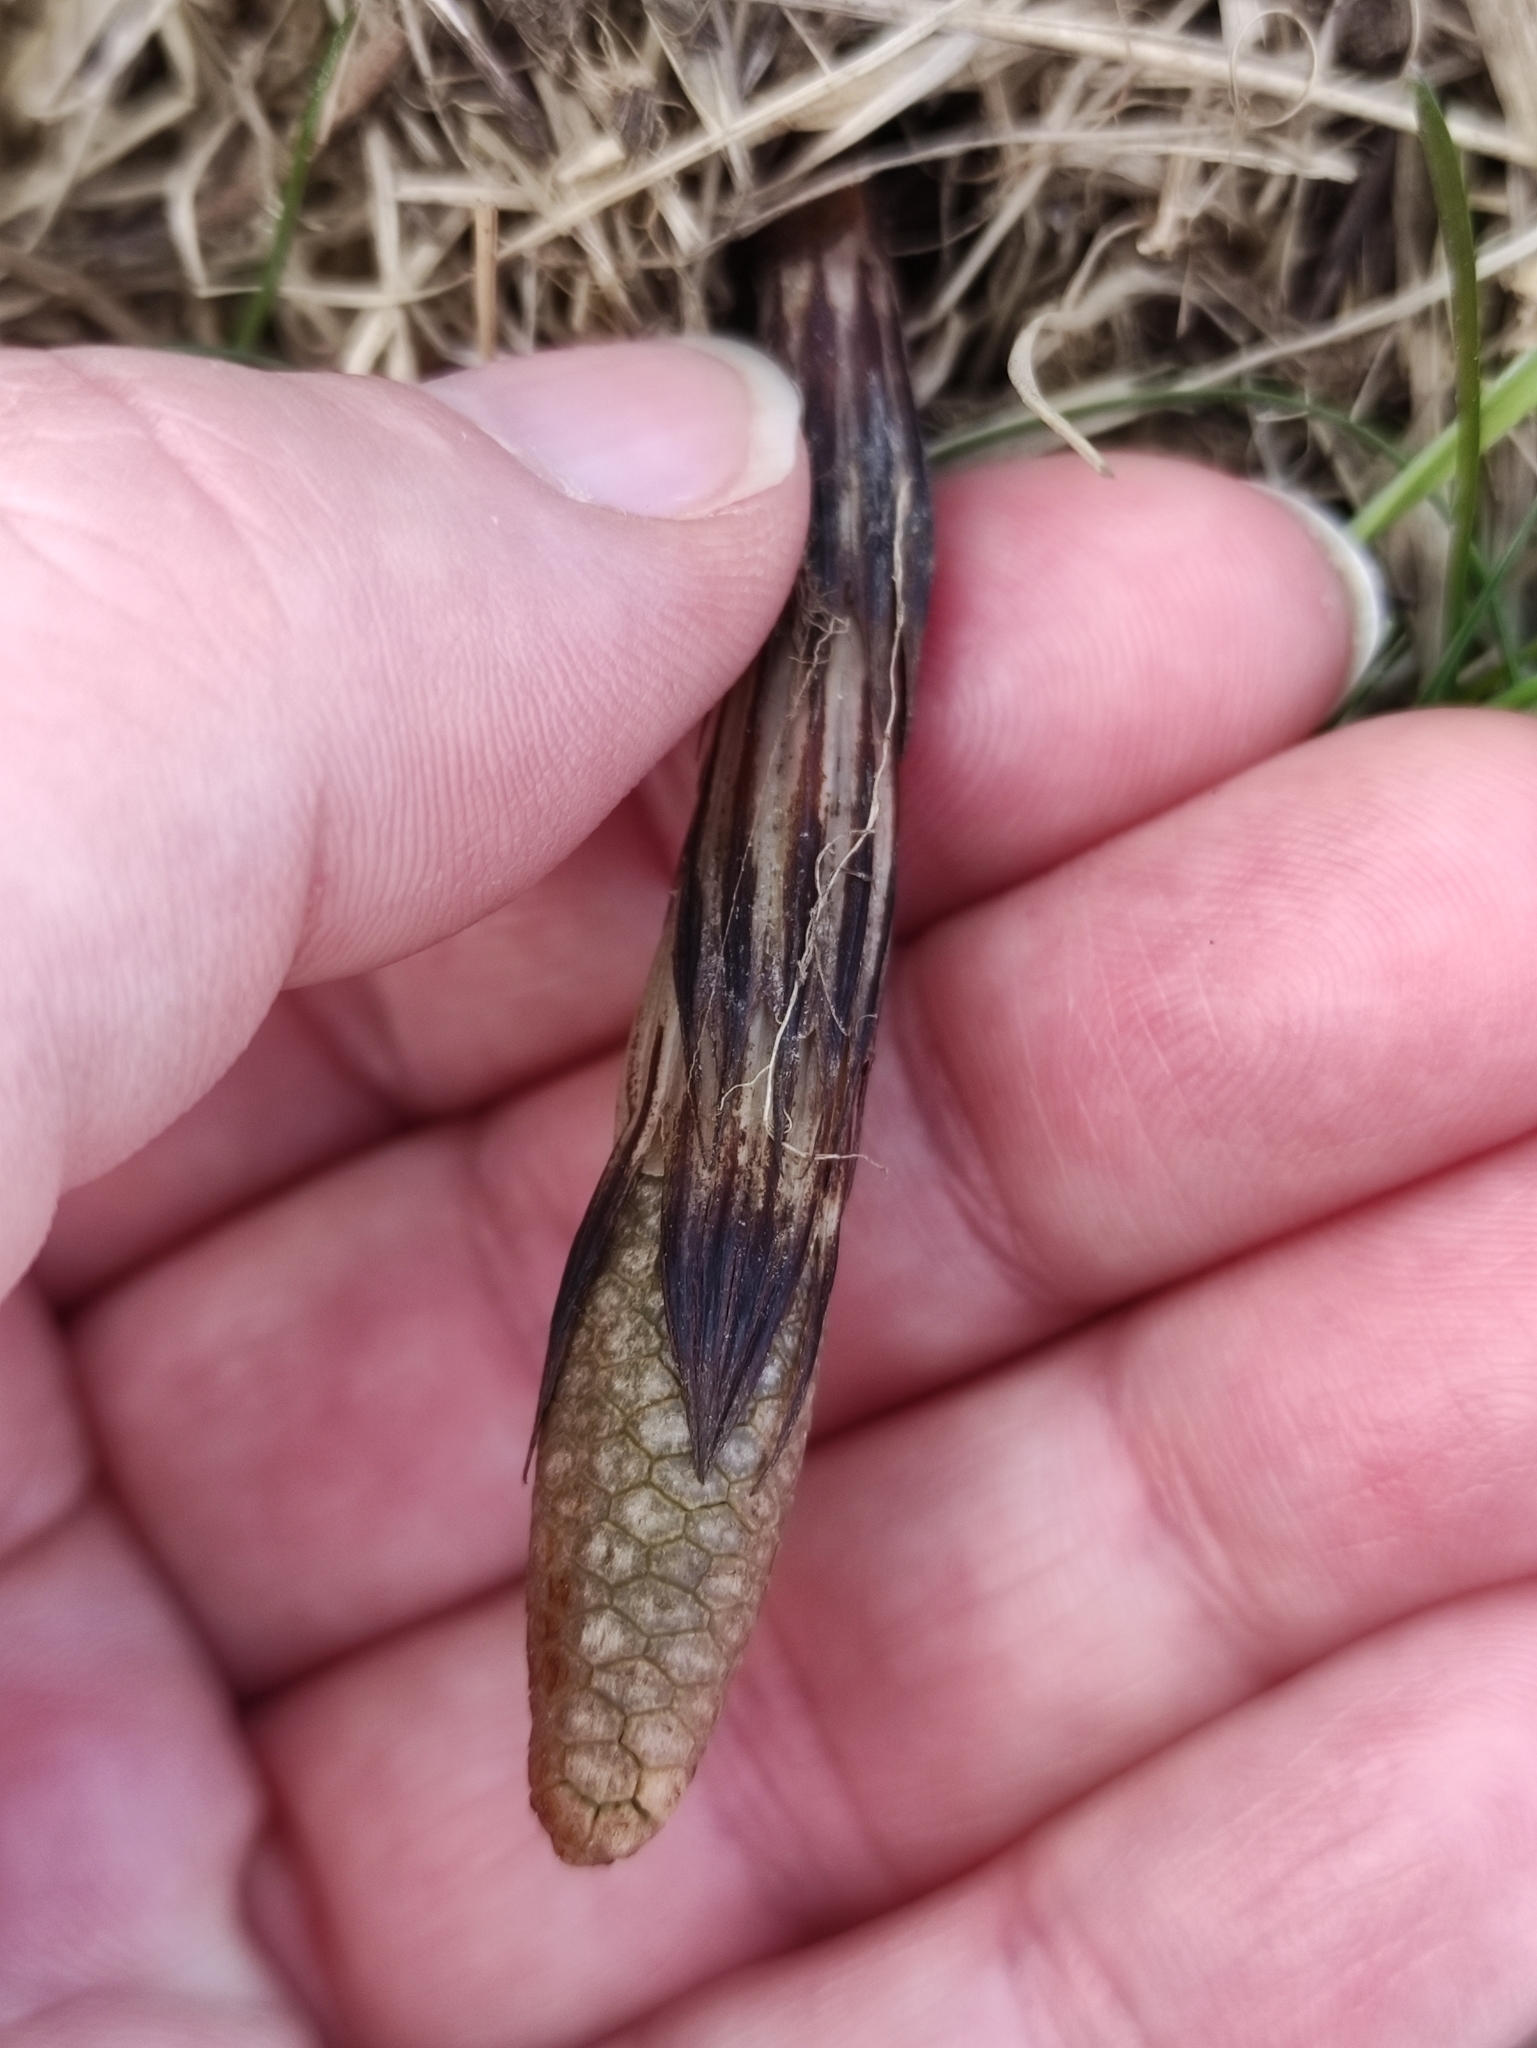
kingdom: Plantae
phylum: Tracheophyta
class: Polypodiopsida
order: Equisetales
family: Equisetaceae
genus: Equisetum
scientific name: Equisetum arvense
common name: Field horsetail
